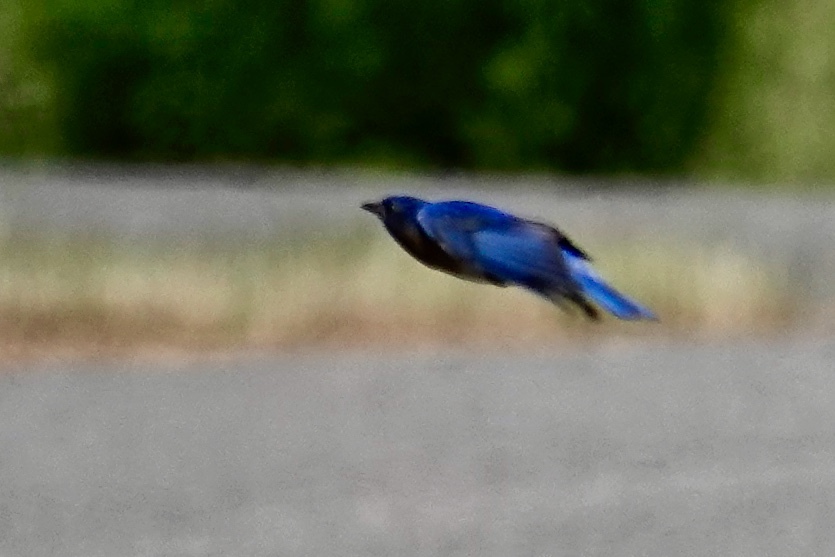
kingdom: Animalia
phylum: Chordata
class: Aves
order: Passeriformes
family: Cardinalidae
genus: Passerina
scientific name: Passerina cyanea
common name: Indigo bunting
